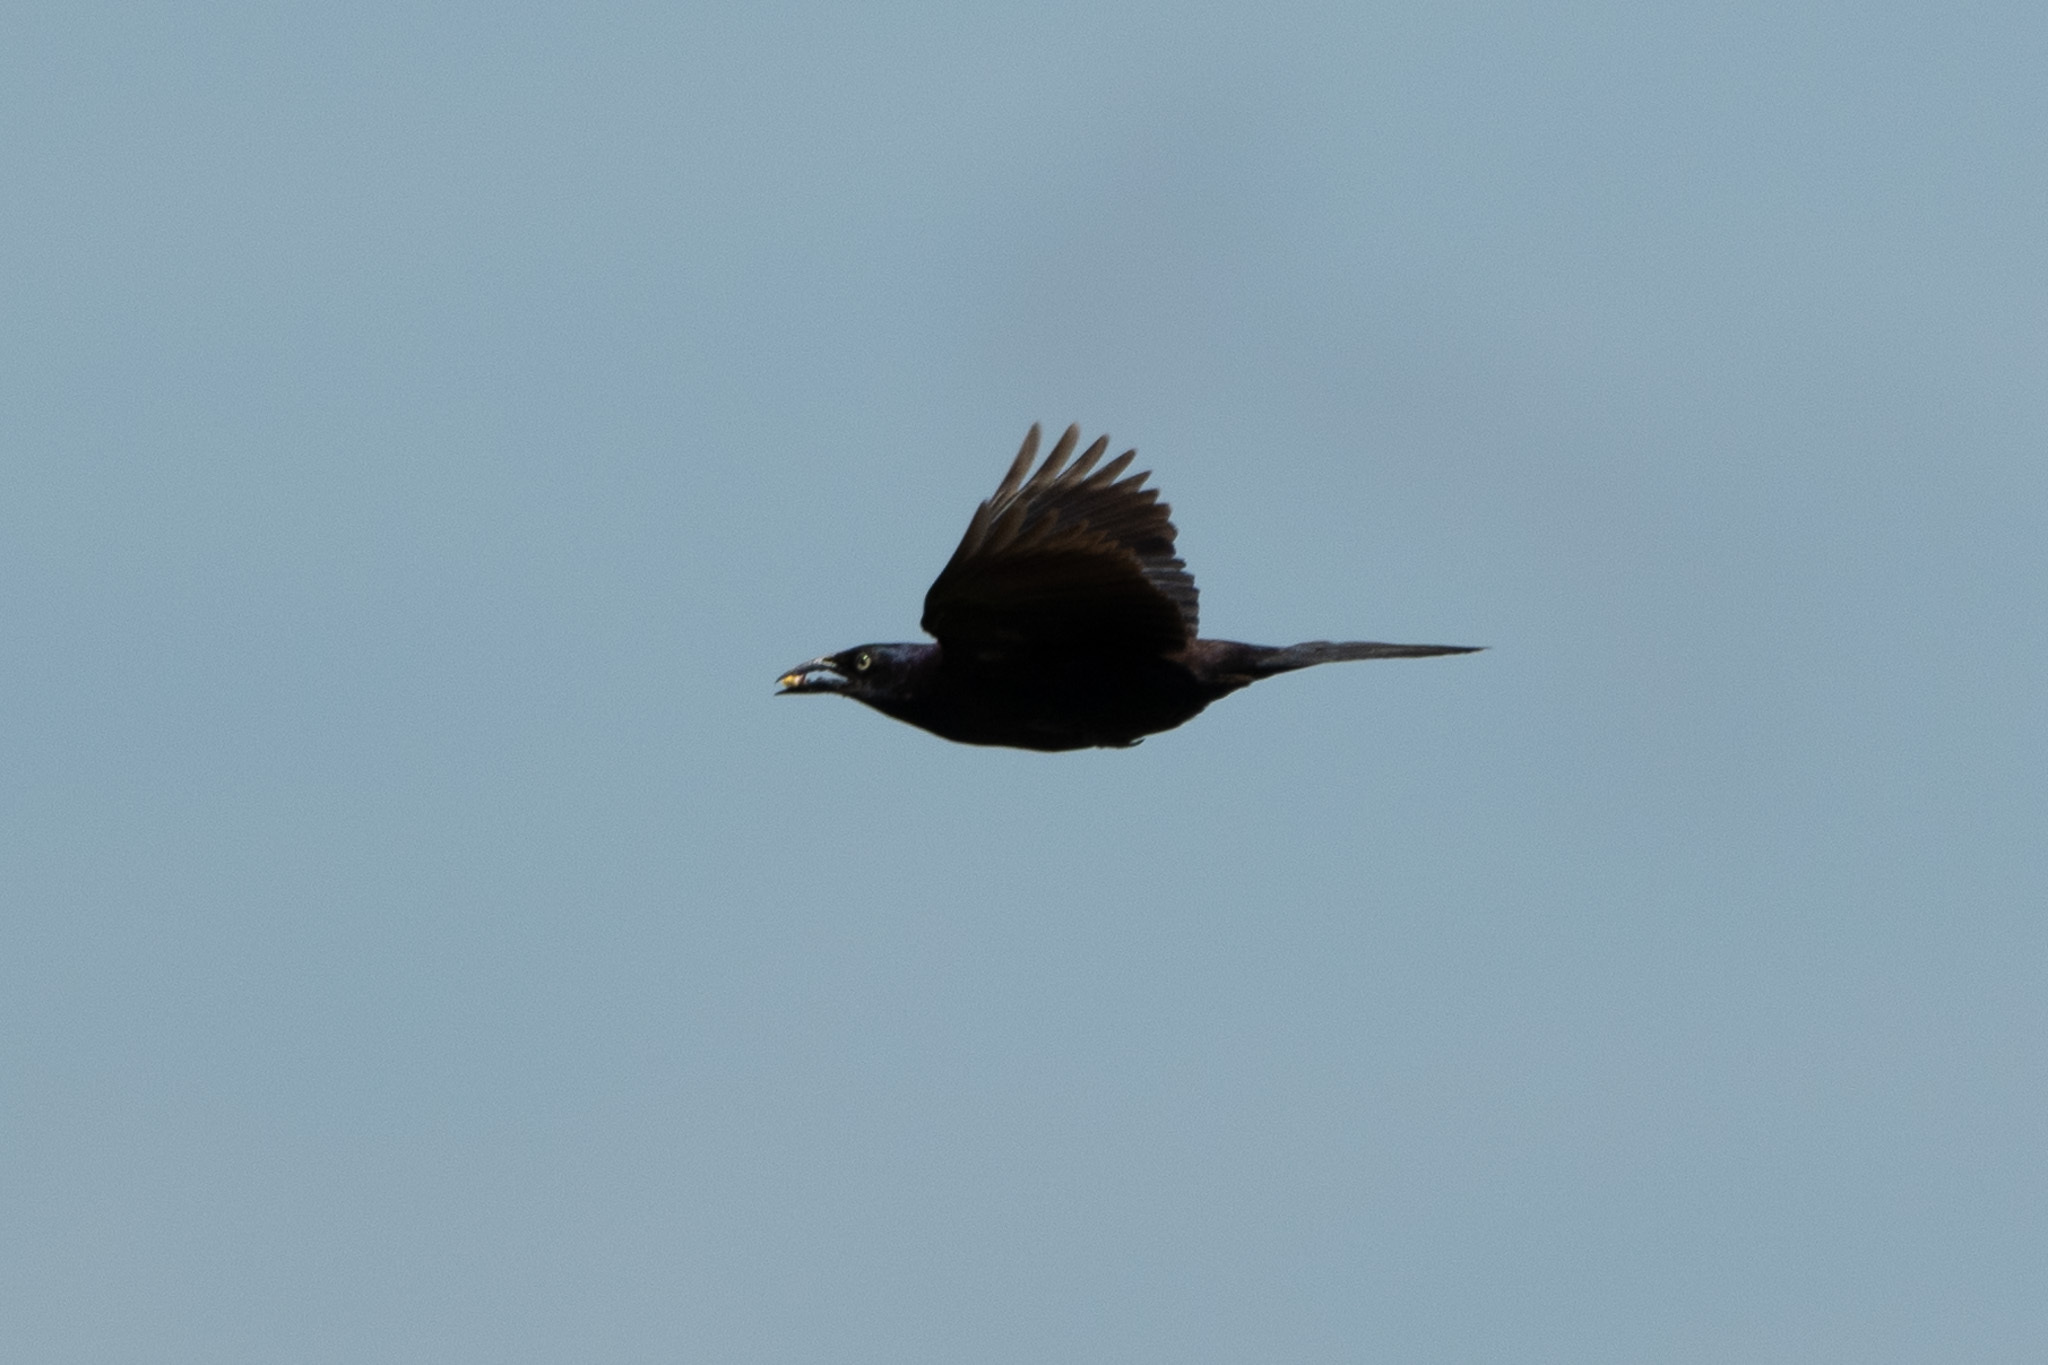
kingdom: Animalia
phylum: Chordata
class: Aves
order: Passeriformes
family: Icteridae
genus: Quiscalus
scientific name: Quiscalus quiscula
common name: Common grackle
